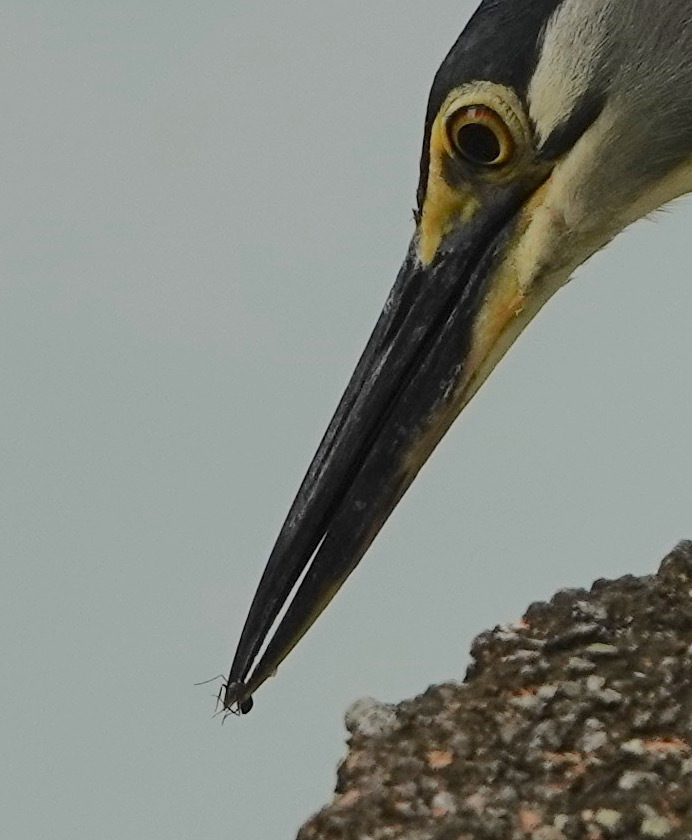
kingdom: Animalia
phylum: Chordata
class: Aves
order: Pelecaniformes
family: Ardeidae
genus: Butorides
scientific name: Butorides striata
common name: Striated heron
